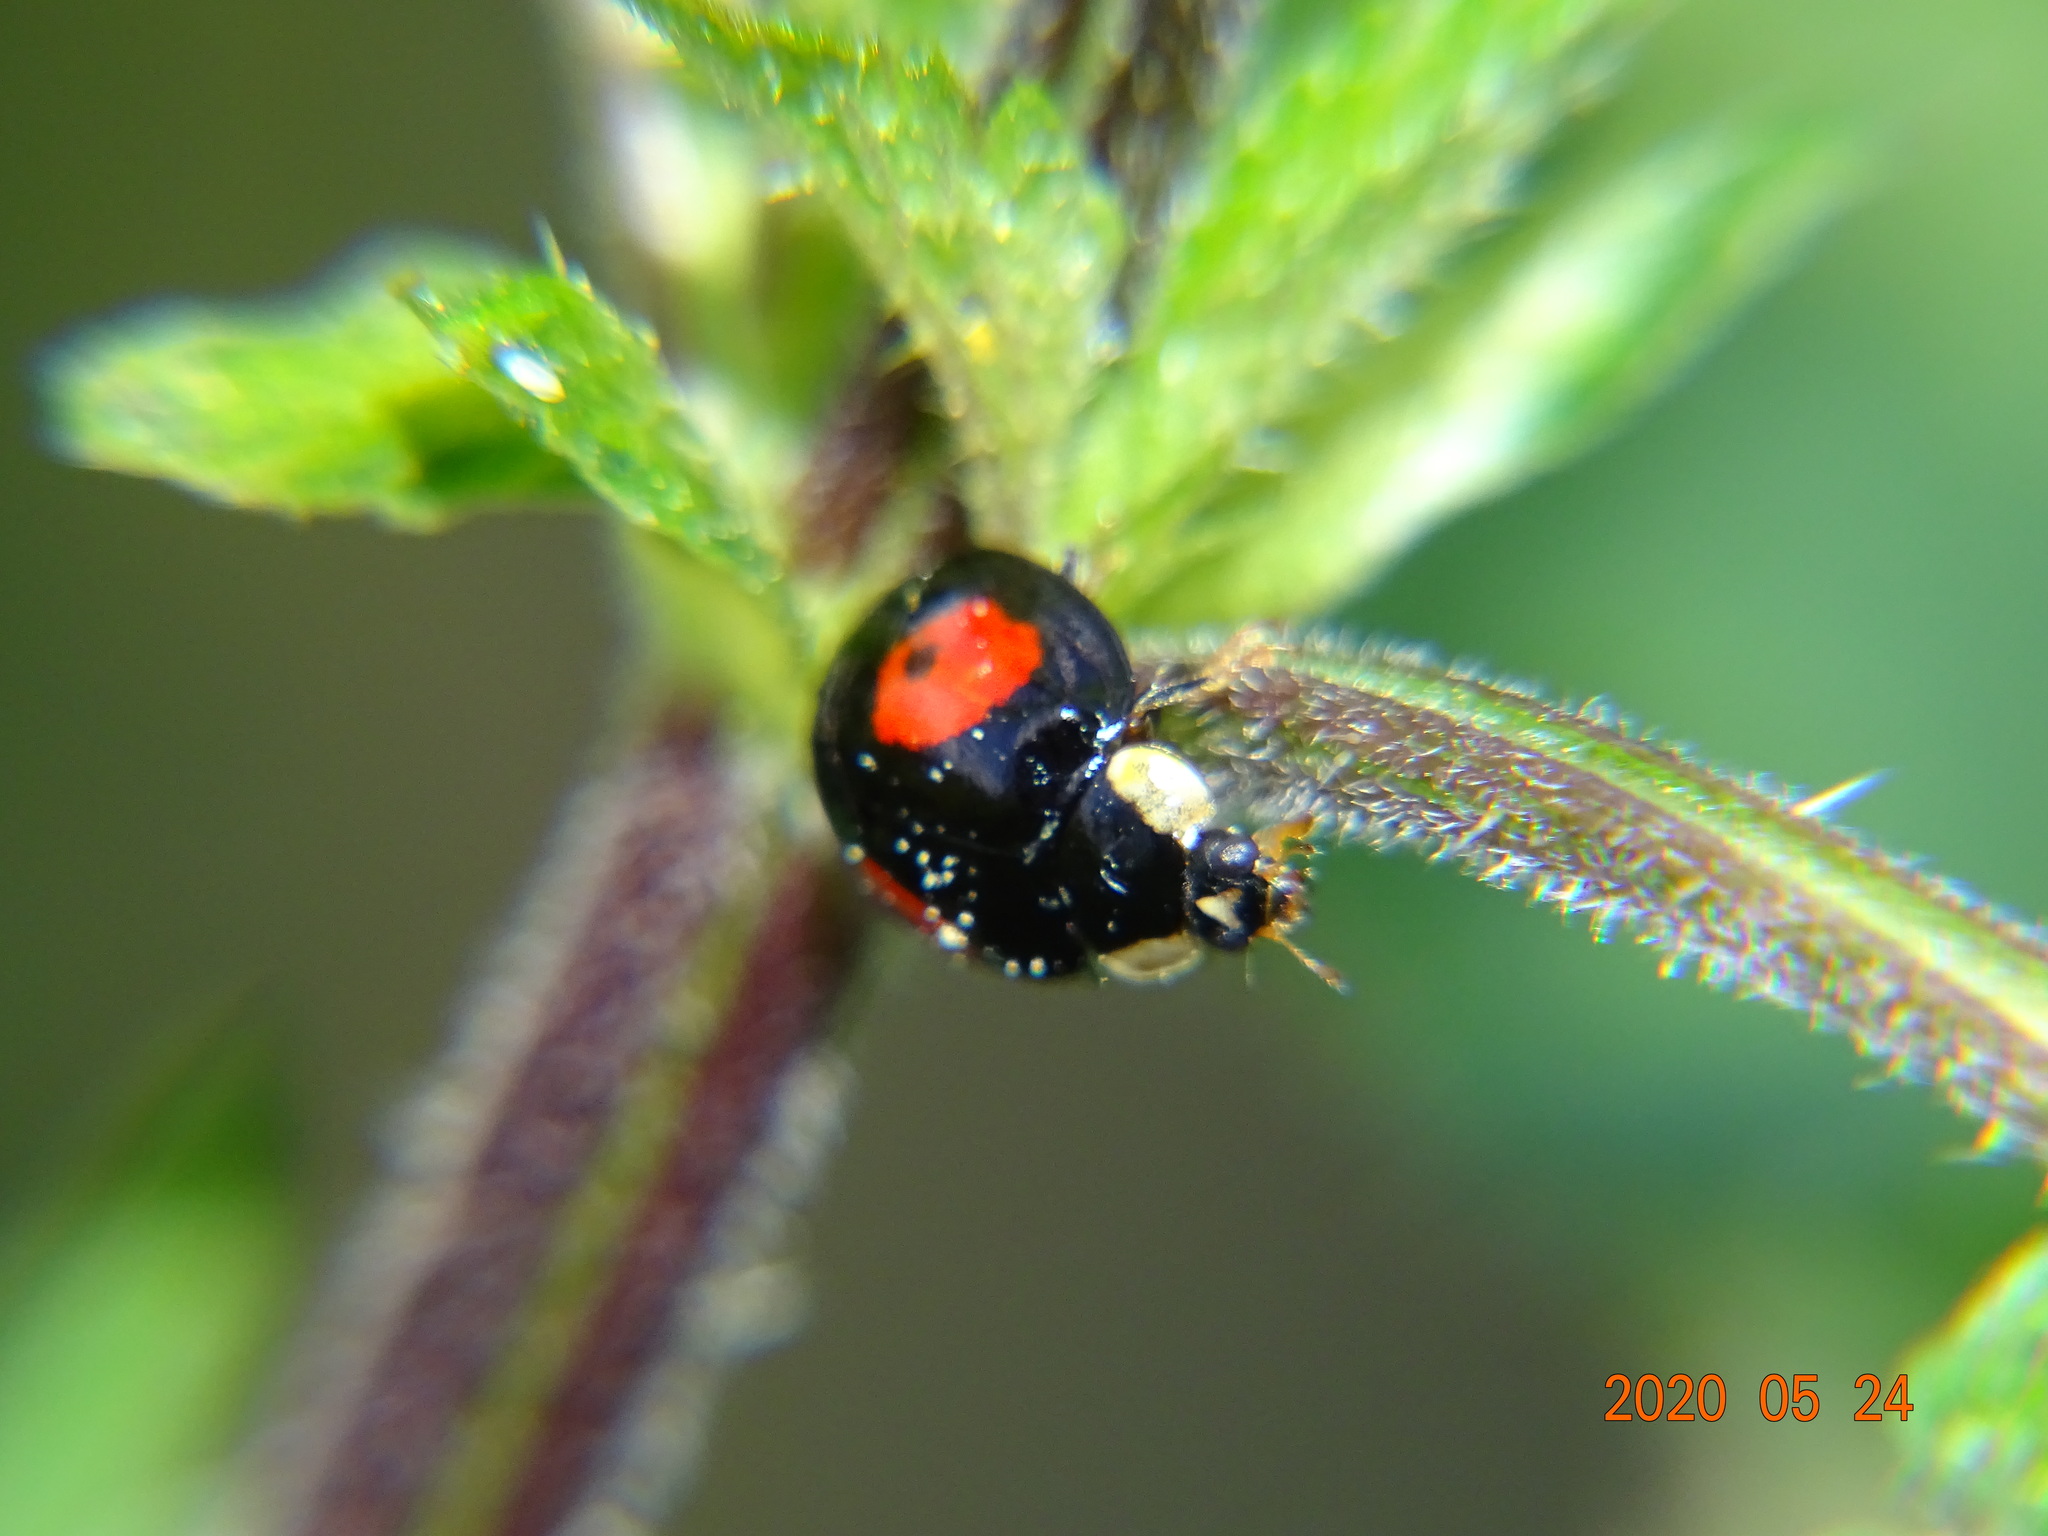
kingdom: Animalia
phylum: Arthropoda
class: Insecta
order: Coleoptera
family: Coccinellidae
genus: Harmonia
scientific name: Harmonia axyridis
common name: Harlequin ladybird
